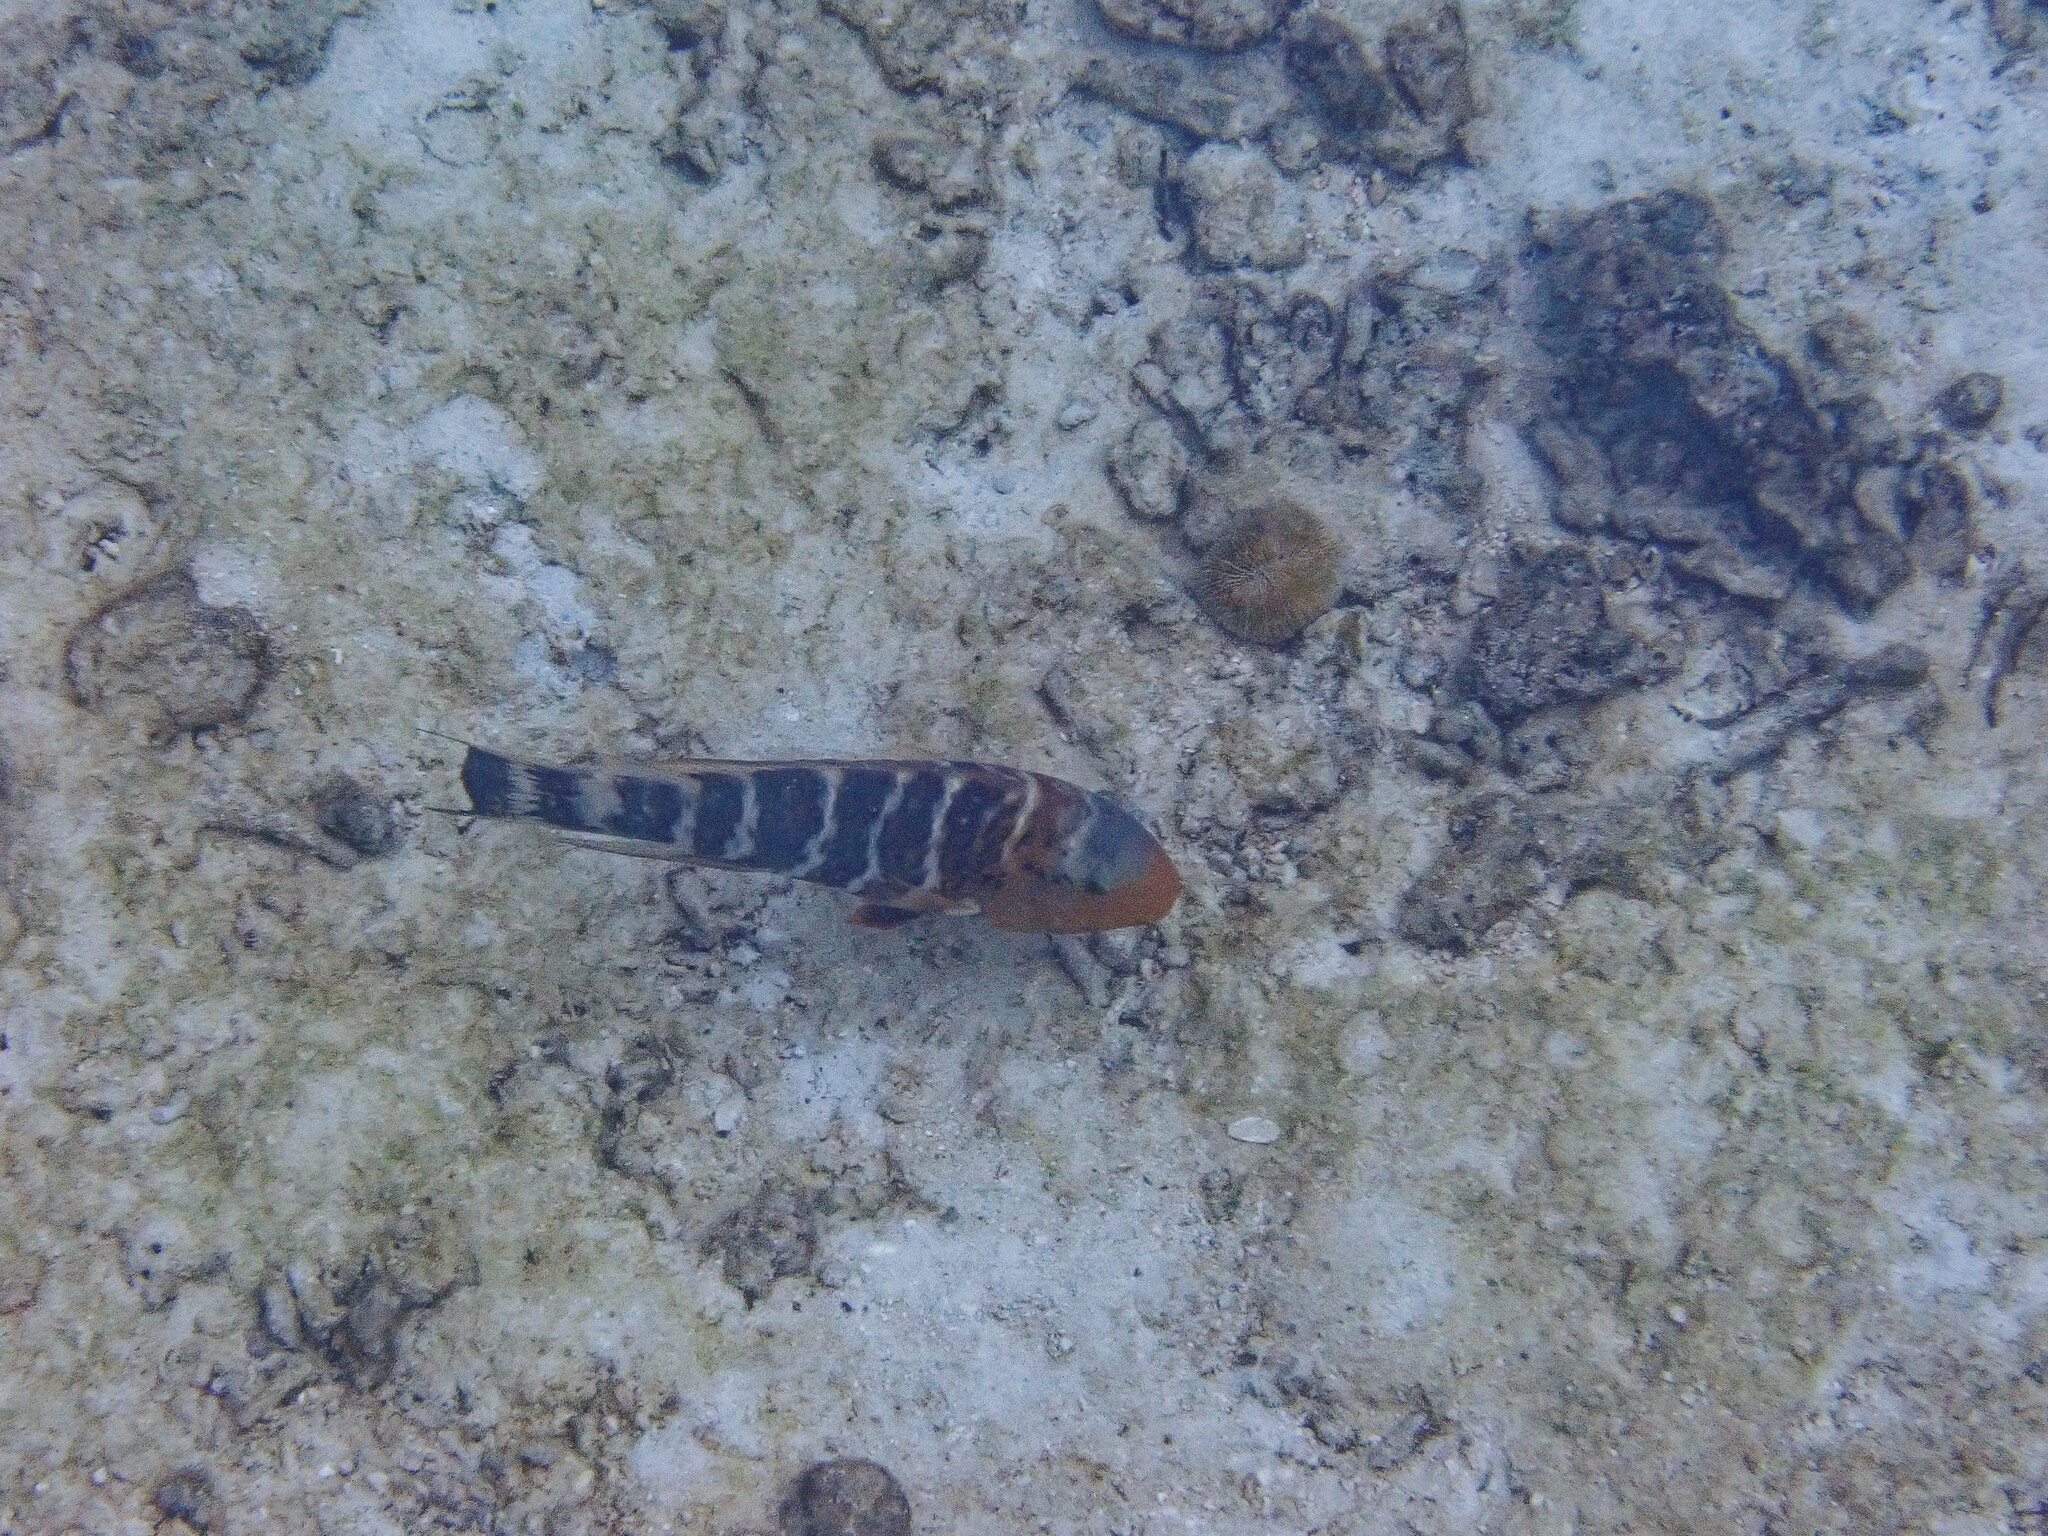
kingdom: Animalia
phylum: Chordata
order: Perciformes
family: Labridae
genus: Cheilinus
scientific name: Cheilinus fasciatus
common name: Red-breasted wrasse
